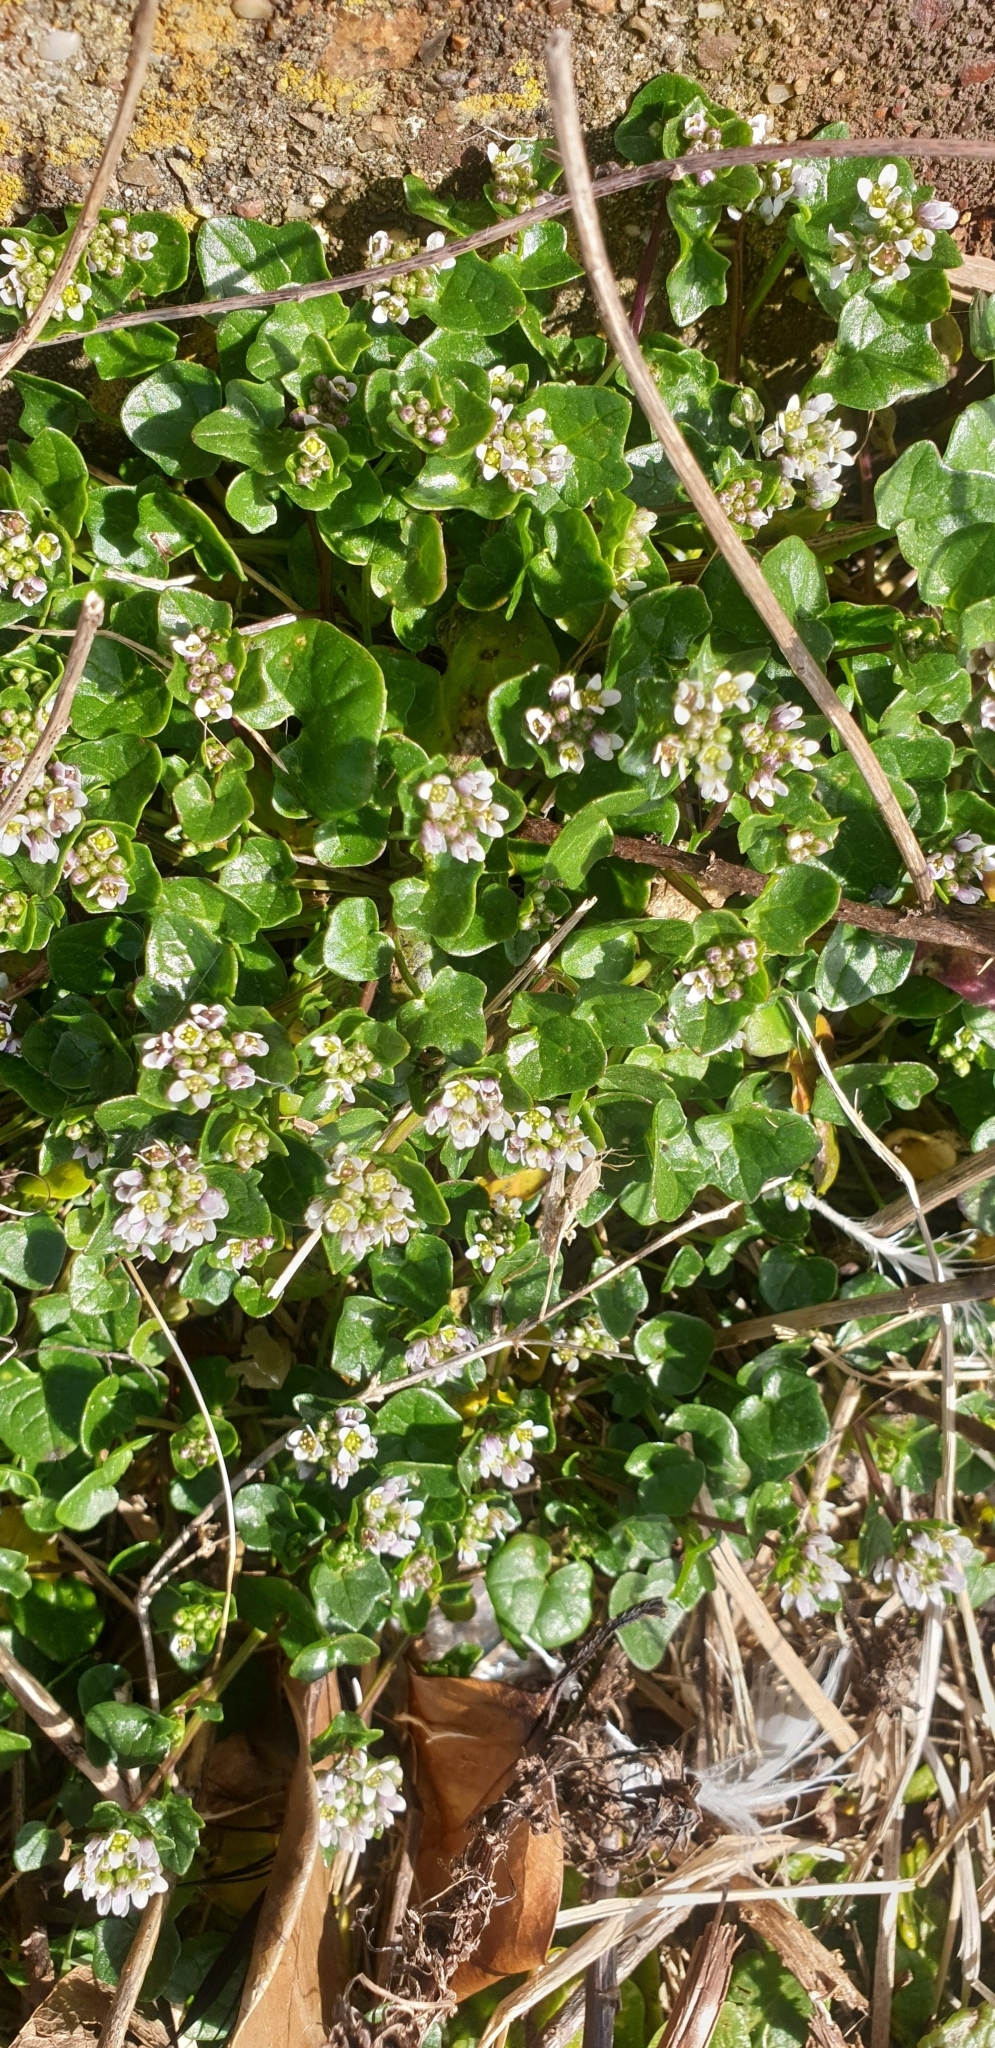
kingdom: Plantae
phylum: Tracheophyta
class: Magnoliopsida
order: Brassicales
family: Brassicaceae
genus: Cochlearia
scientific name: Cochlearia danica
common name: Early scurvygrass
